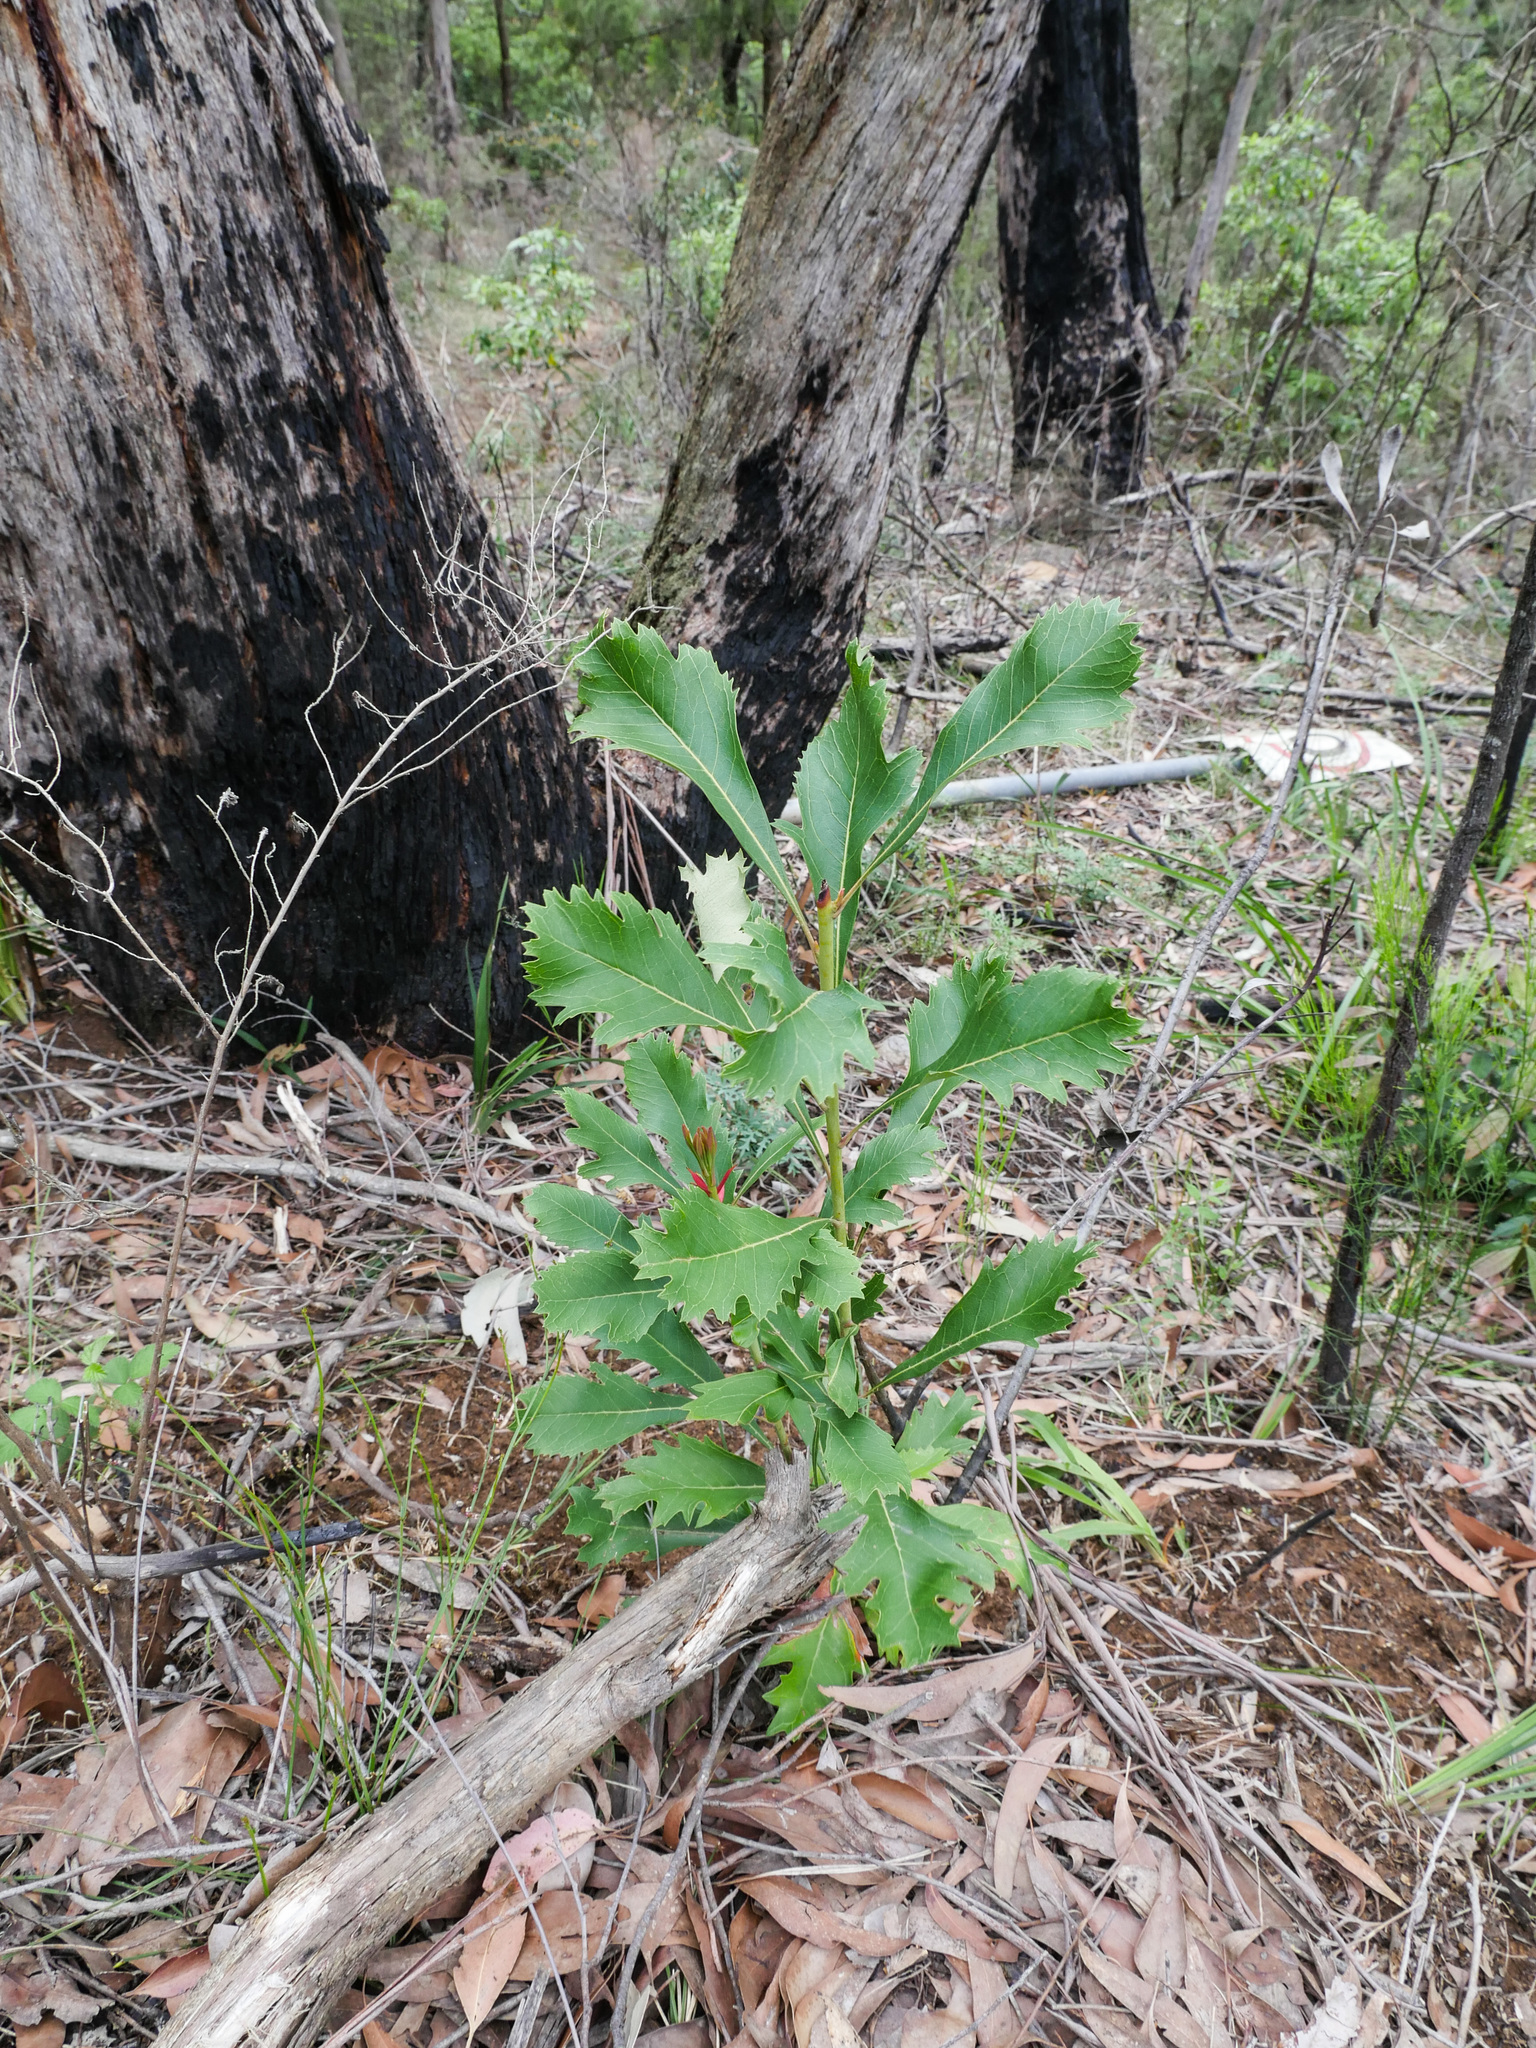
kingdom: Plantae
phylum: Tracheophyta
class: Magnoliopsida
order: Proteales
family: Proteaceae
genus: Telopea
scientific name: Telopea speciosissima
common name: New south wales waratah
